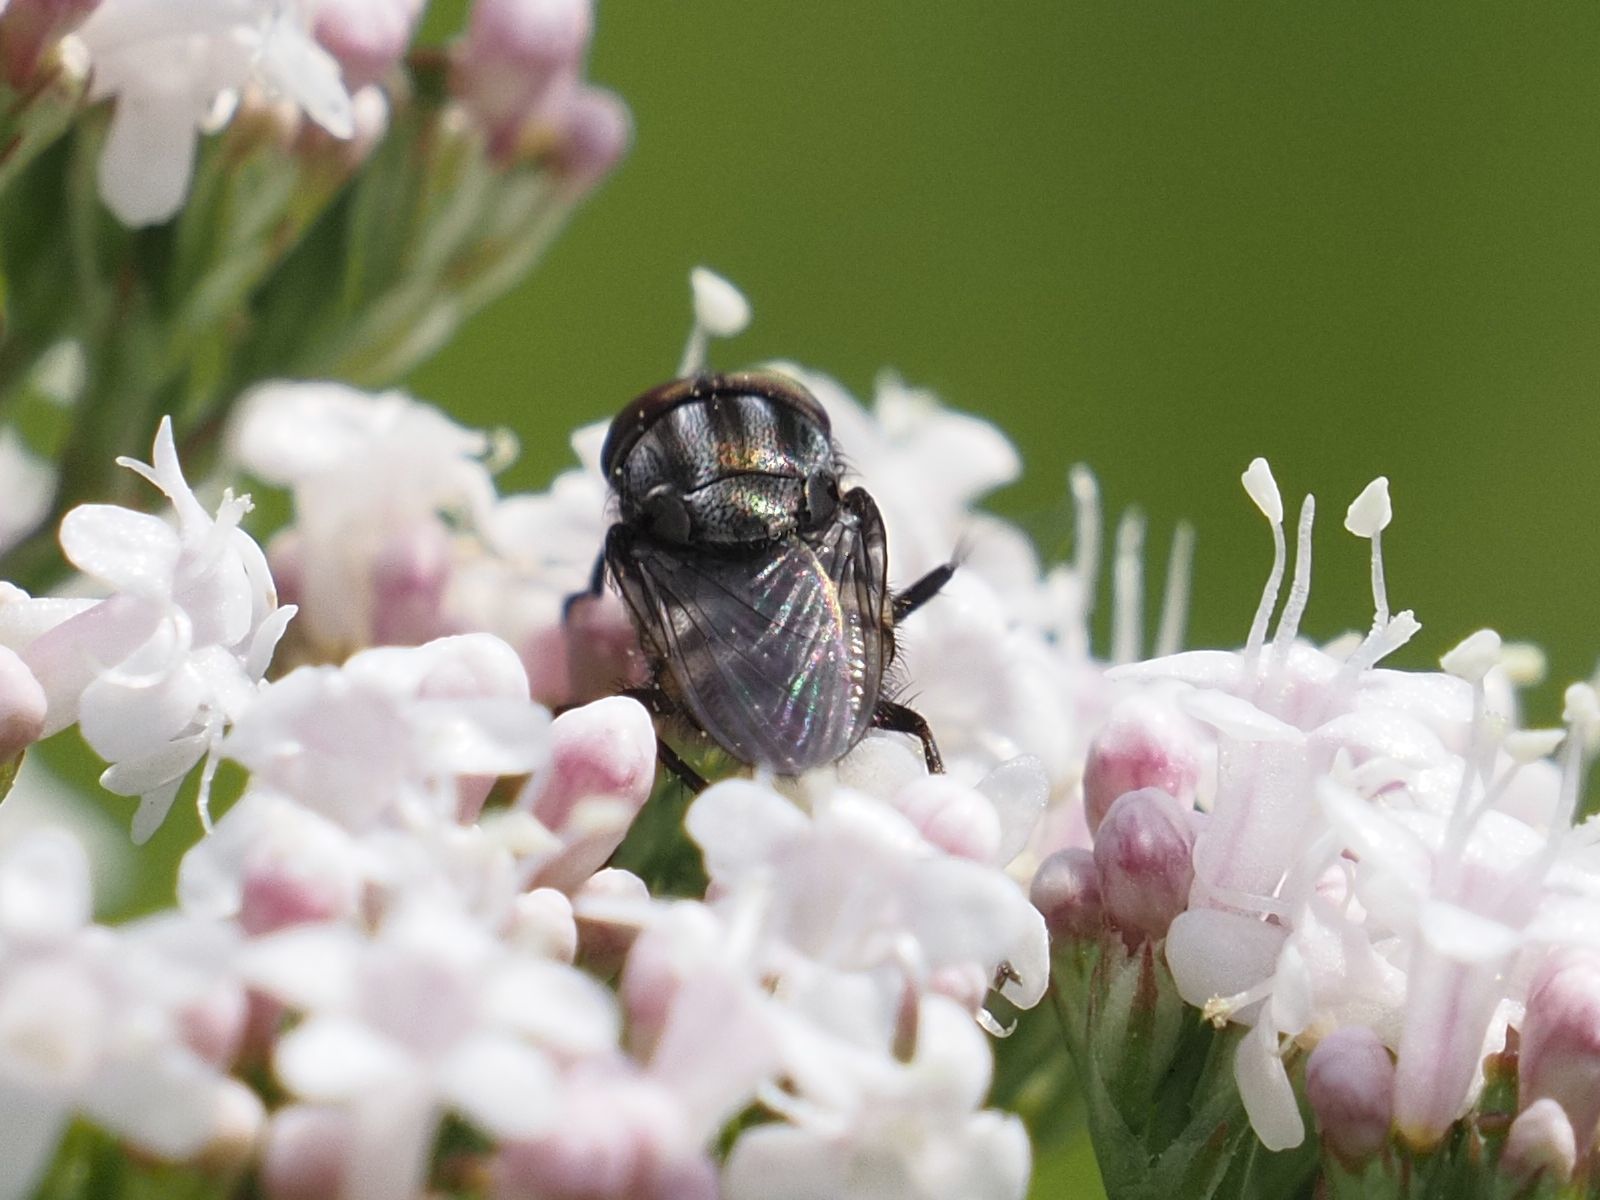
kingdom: Animalia
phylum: Arthropoda
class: Insecta
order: Diptera
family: Calliphoridae
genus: Stomorhina
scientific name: Stomorhina lunata
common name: Locust blowfly
